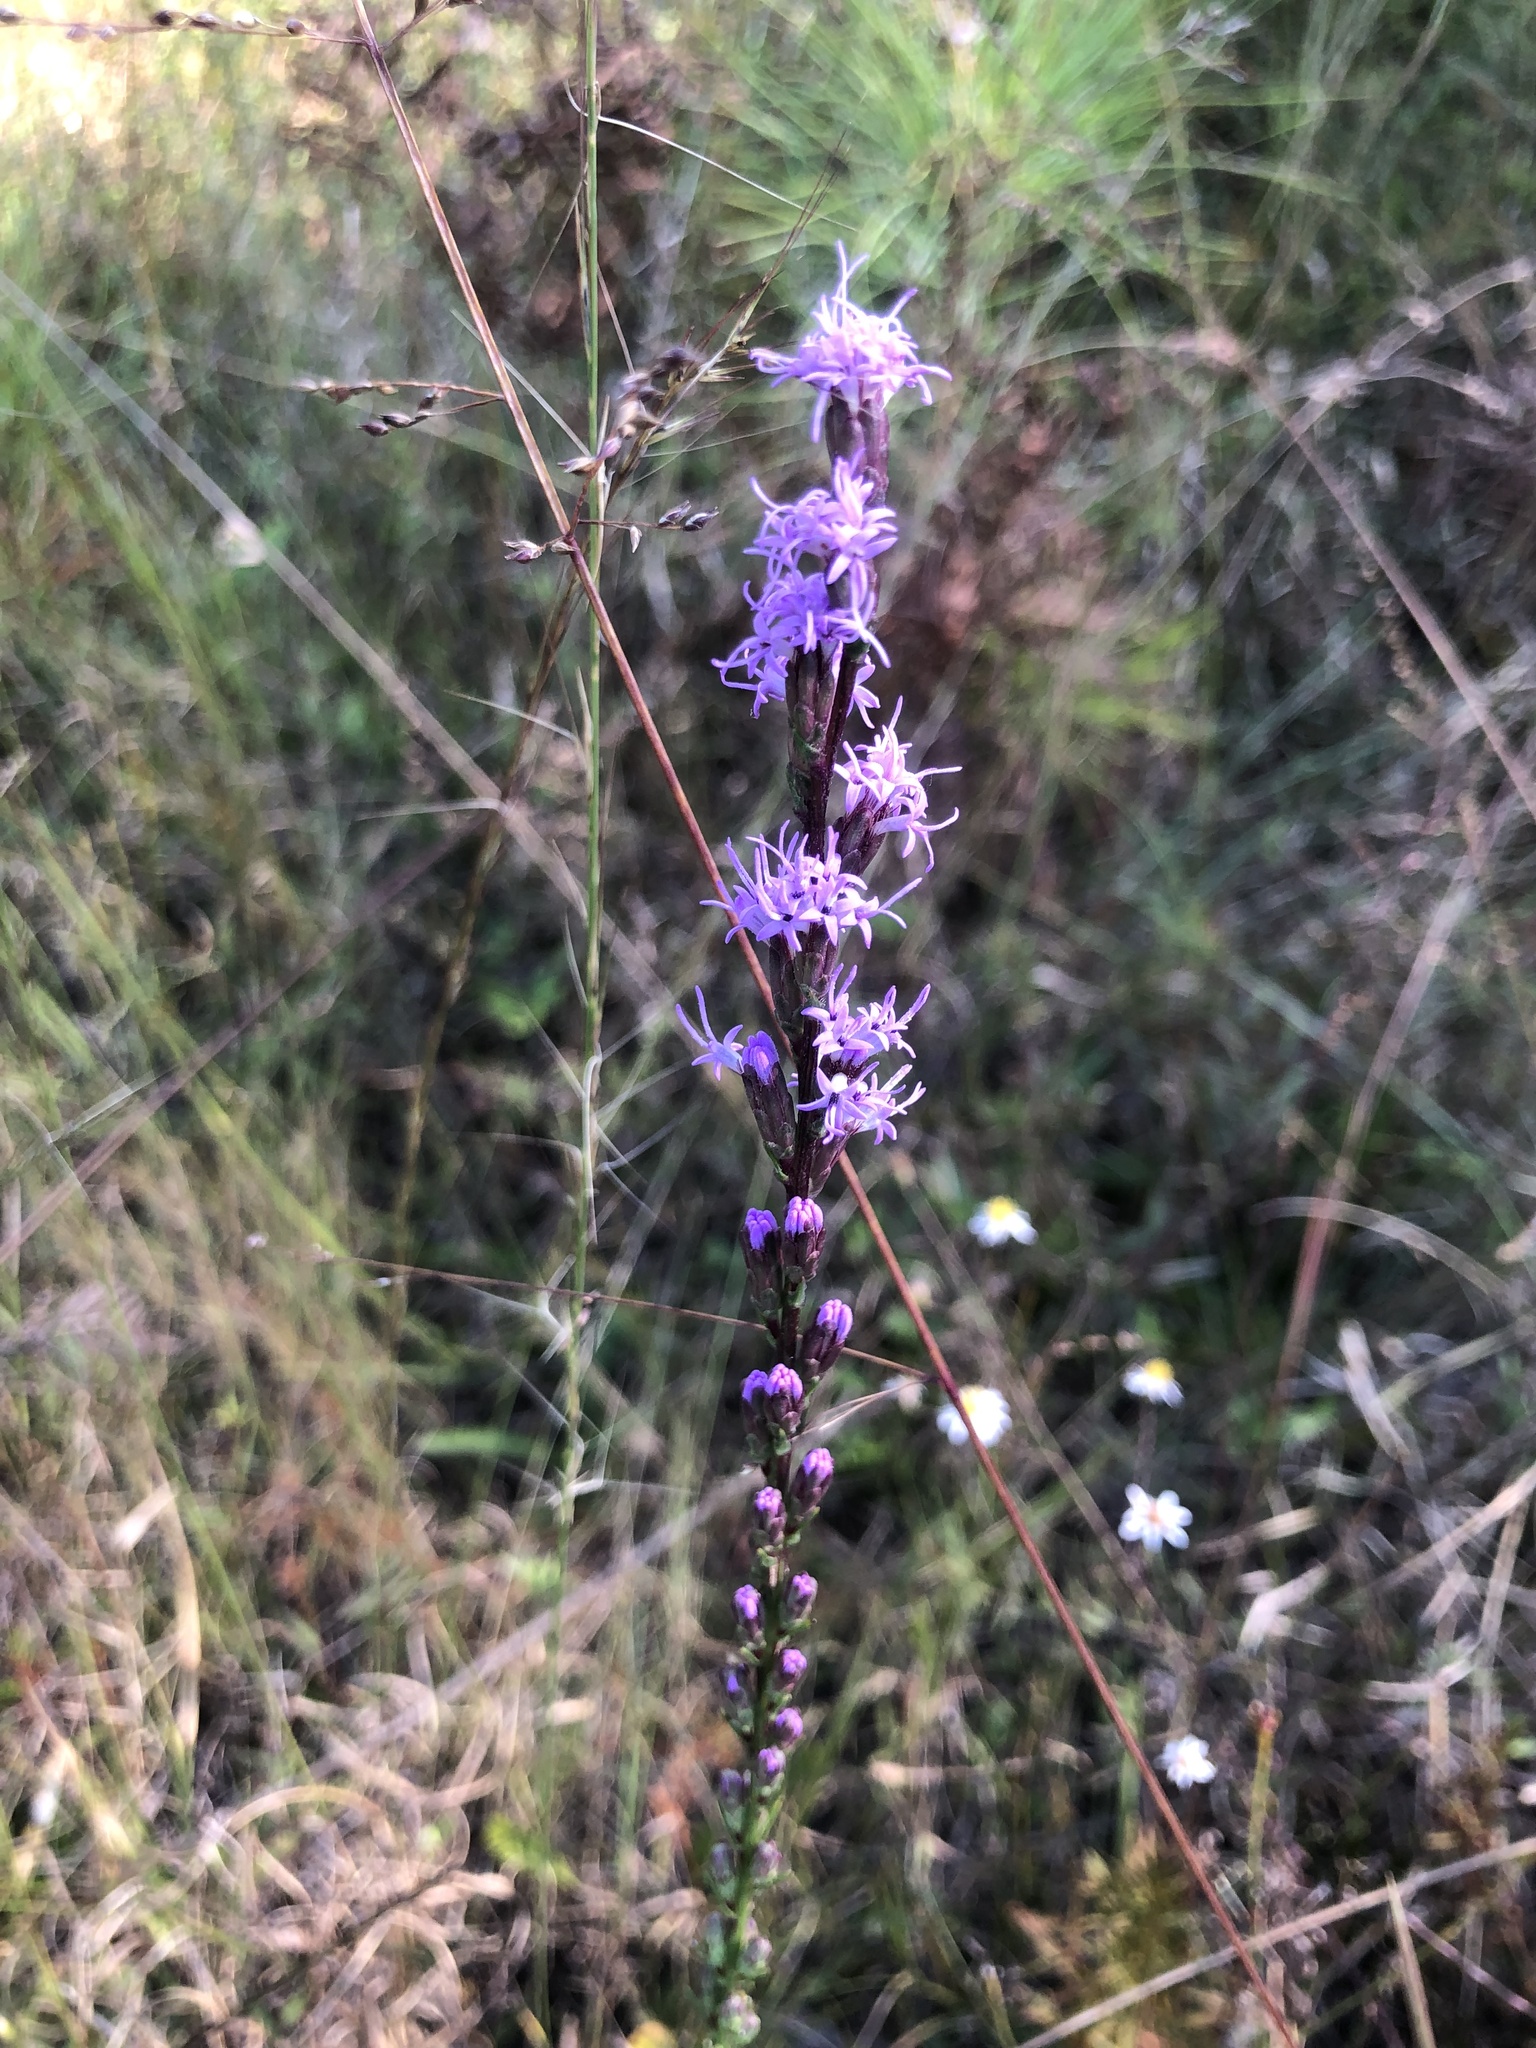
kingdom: Plantae
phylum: Tracheophyta
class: Magnoliopsida
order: Asterales
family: Asteraceae
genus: Liatris
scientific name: Liatris pilosa
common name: Grass-leaf gayfeather
